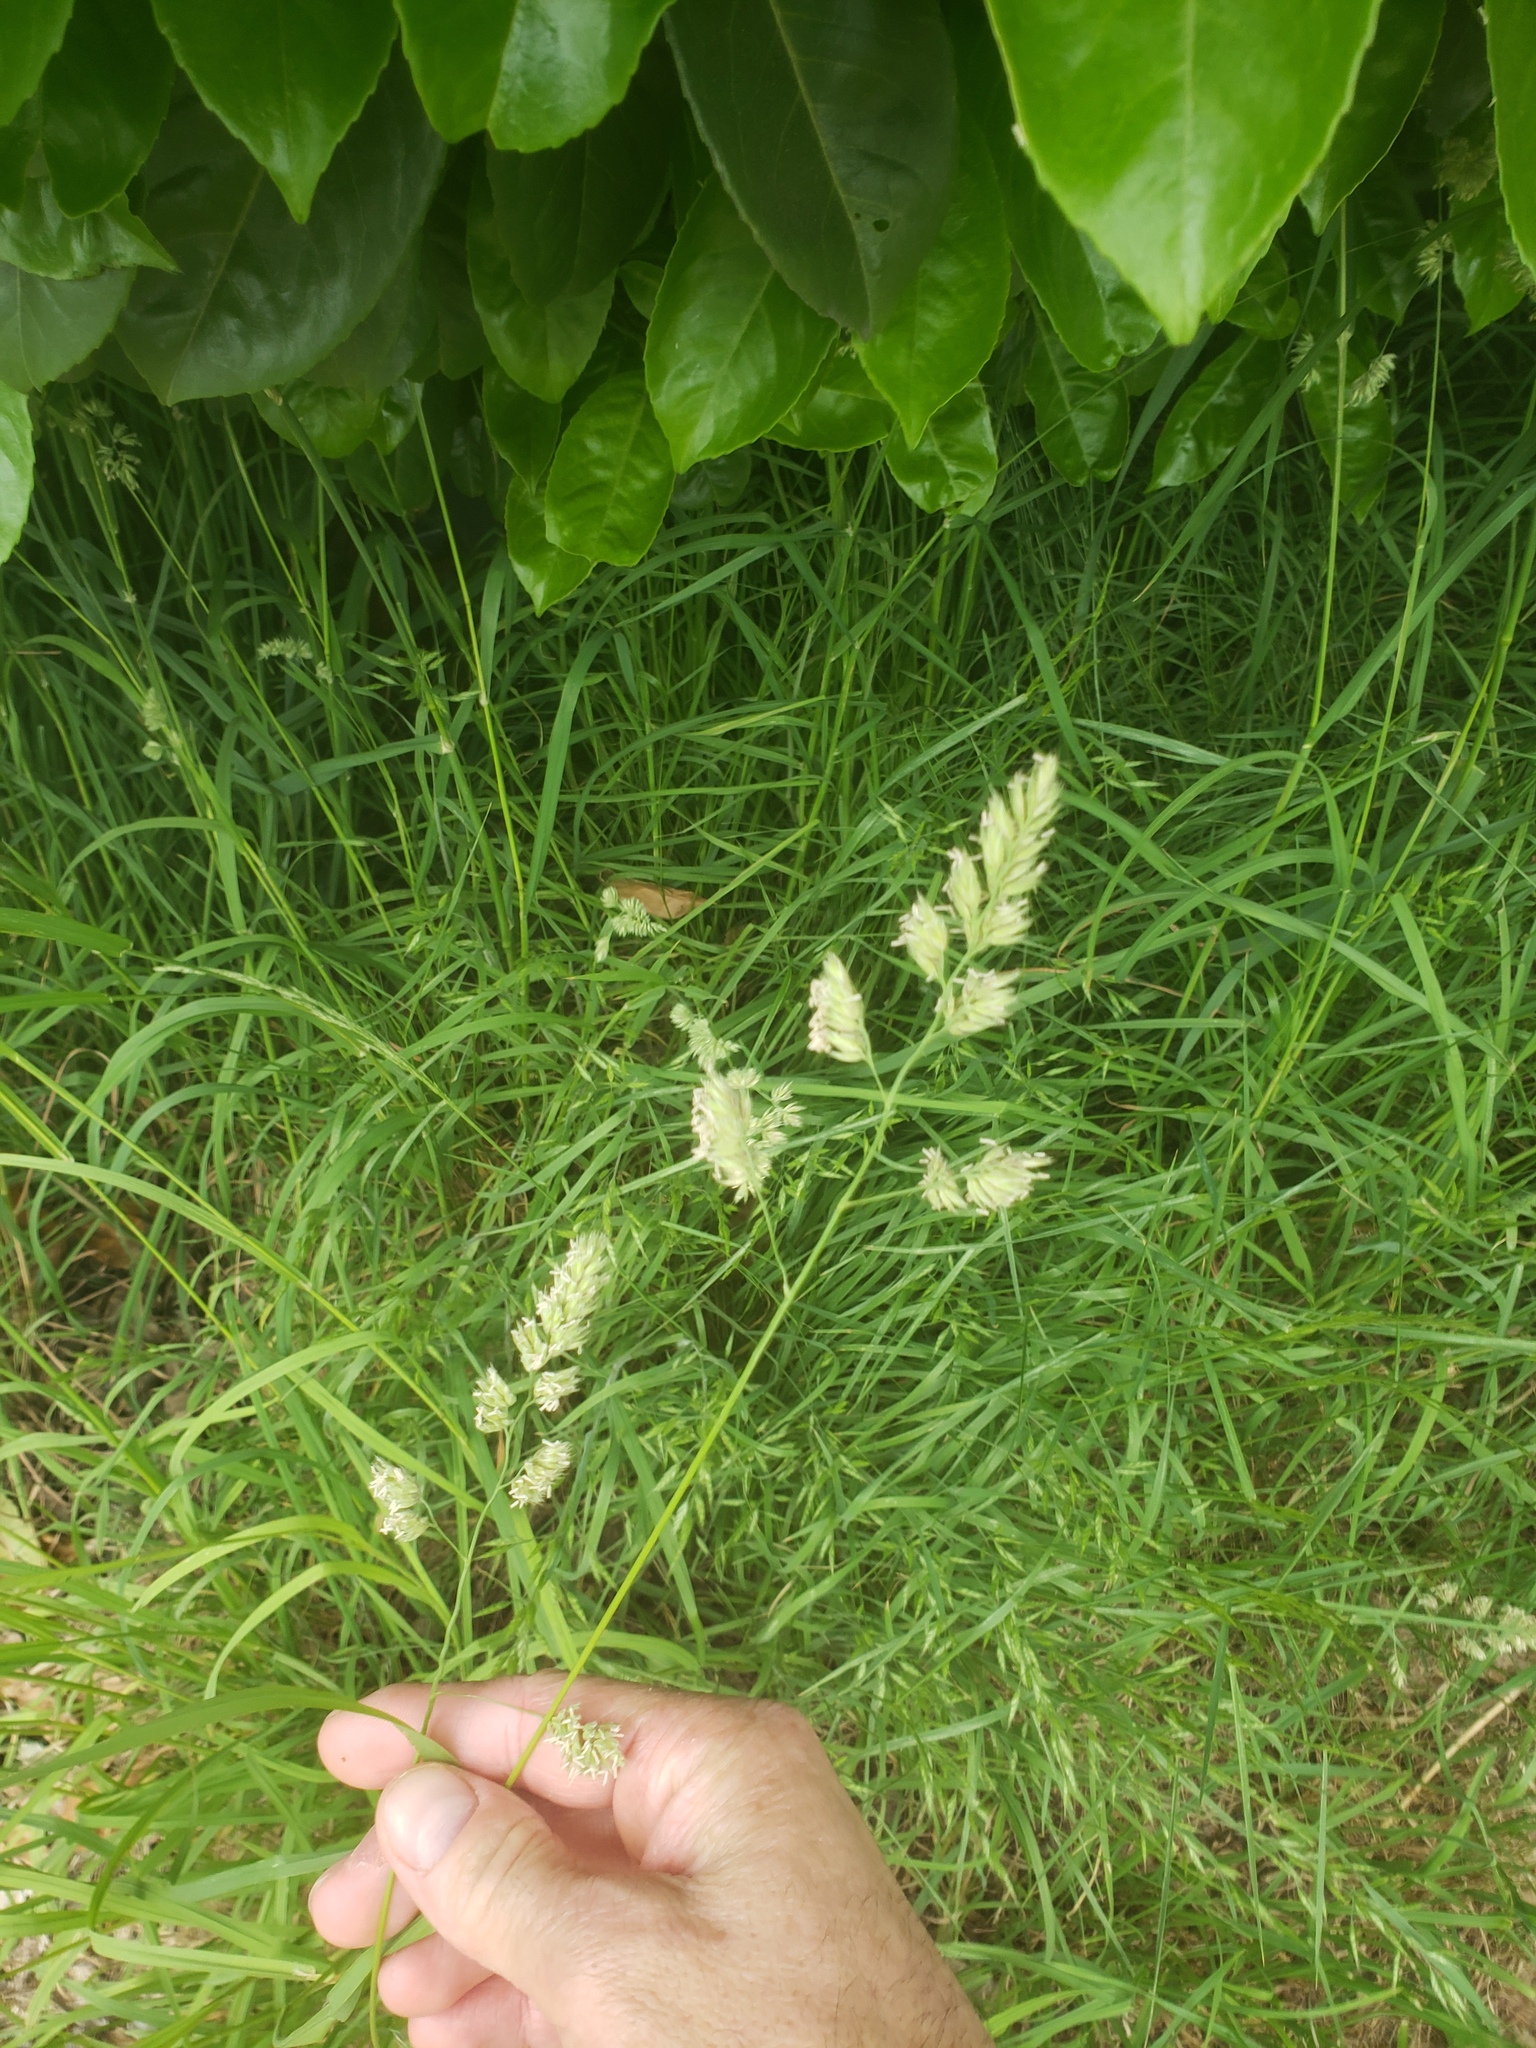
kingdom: Plantae
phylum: Tracheophyta
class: Liliopsida
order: Poales
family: Poaceae
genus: Dactylis
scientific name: Dactylis glomerata
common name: Orchardgrass
